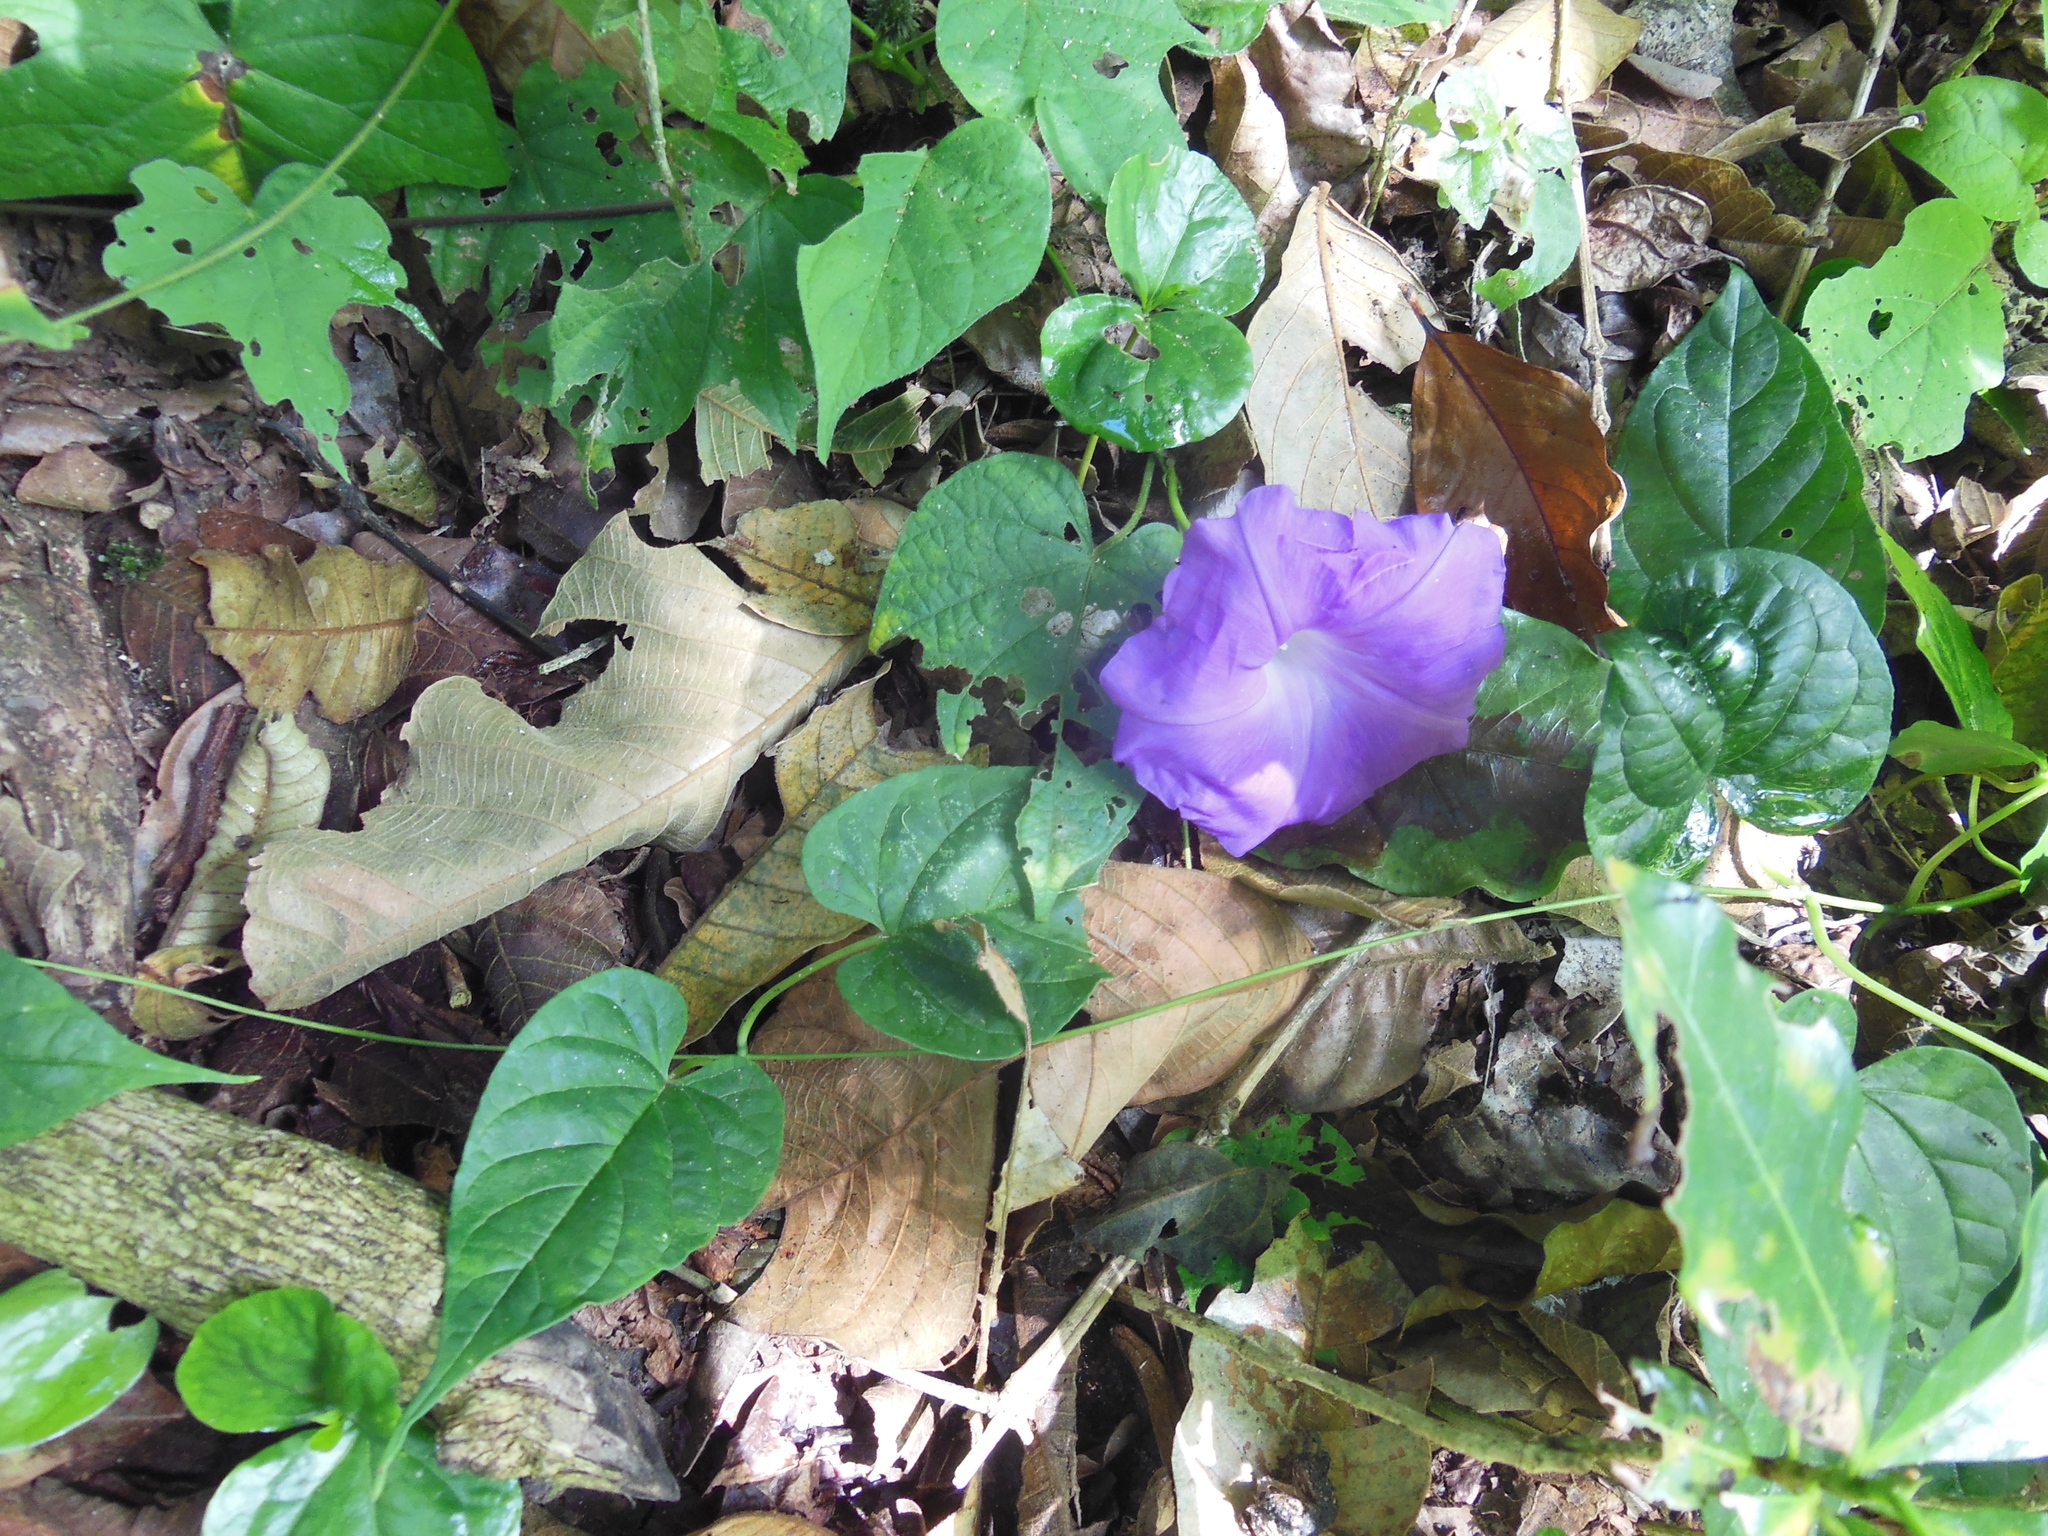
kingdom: Plantae
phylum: Tracheophyta
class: Magnoliopsida
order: Solanales
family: Convolvulaceae
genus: Ipomoea
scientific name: Ipomoea silvicola
